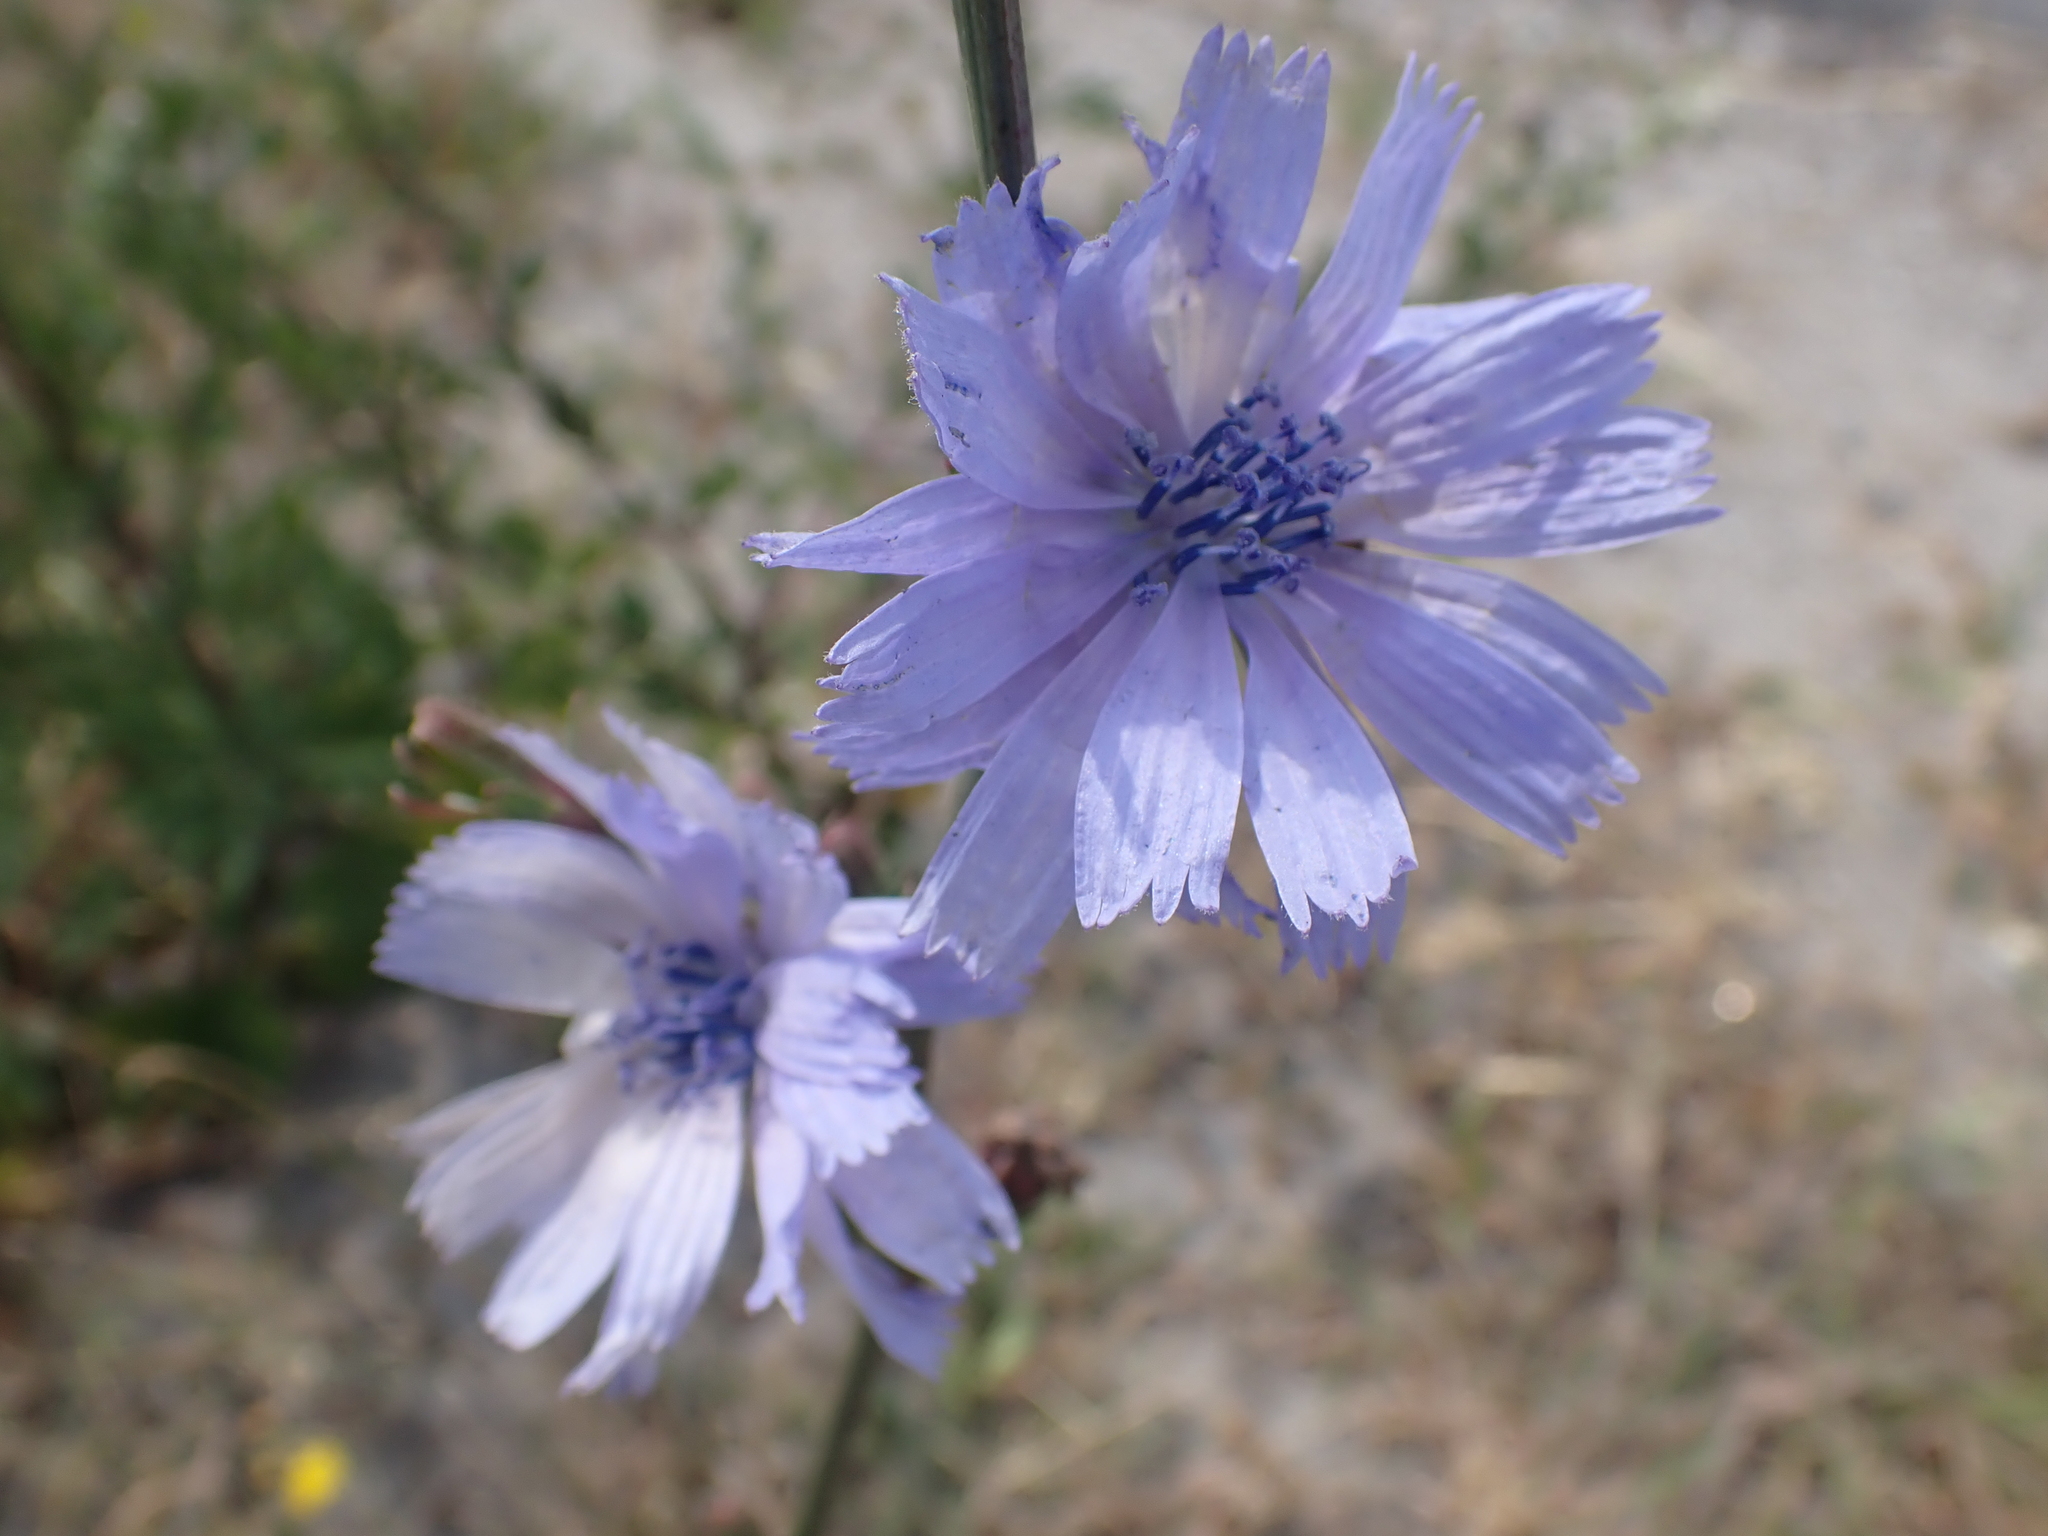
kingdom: Plantae
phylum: Tracheophyta
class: Magnoliopsida
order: Asterales
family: Asteraceae
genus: Cichorium
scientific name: Cichorium intybus
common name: Chicory
